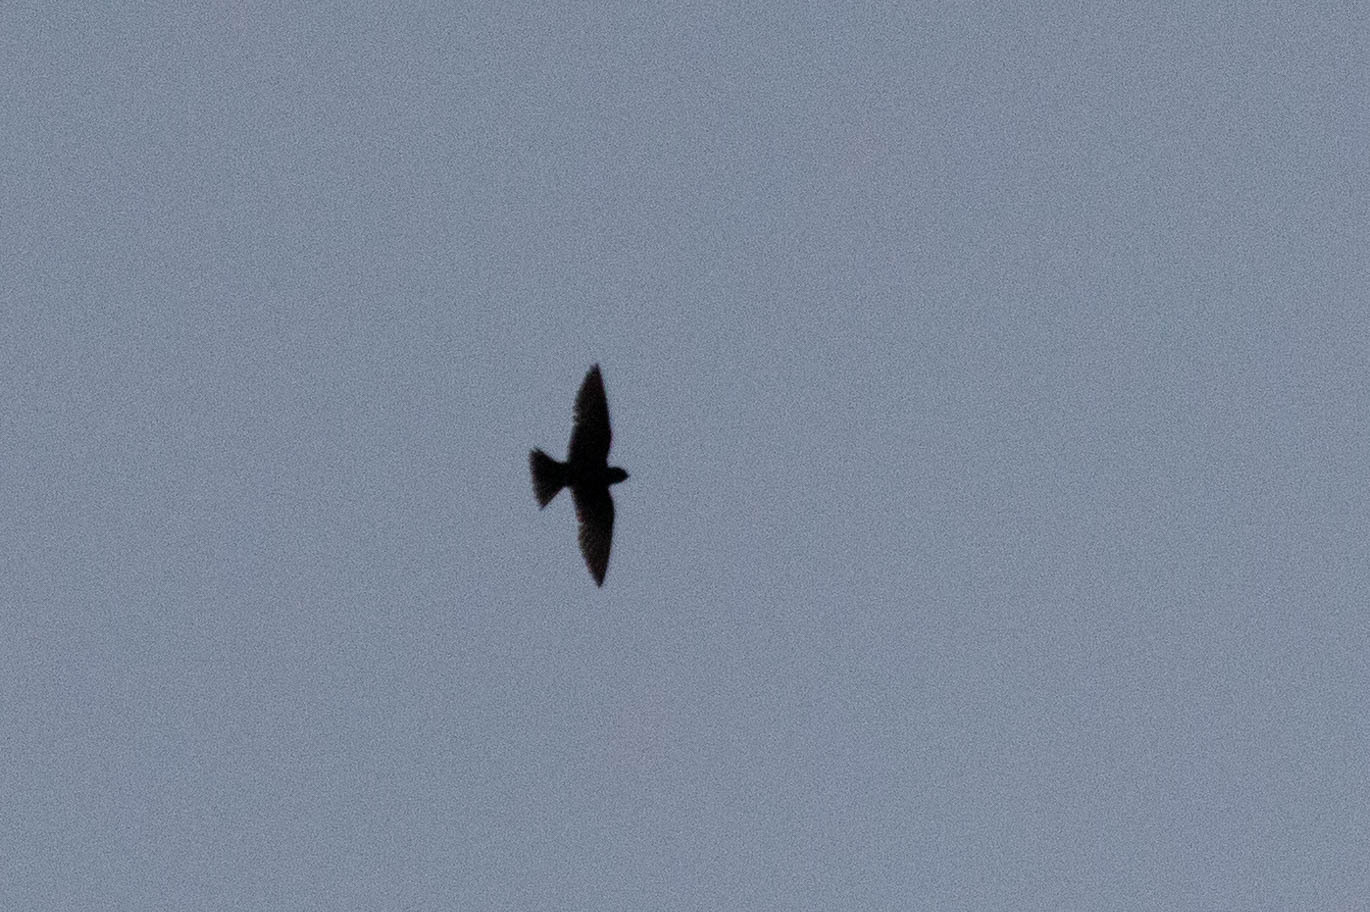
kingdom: Animalia
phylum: Chordata
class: Aves
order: Passeriformes
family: Hirundinidae
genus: Progne
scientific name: Progne subis
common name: Purple martin
